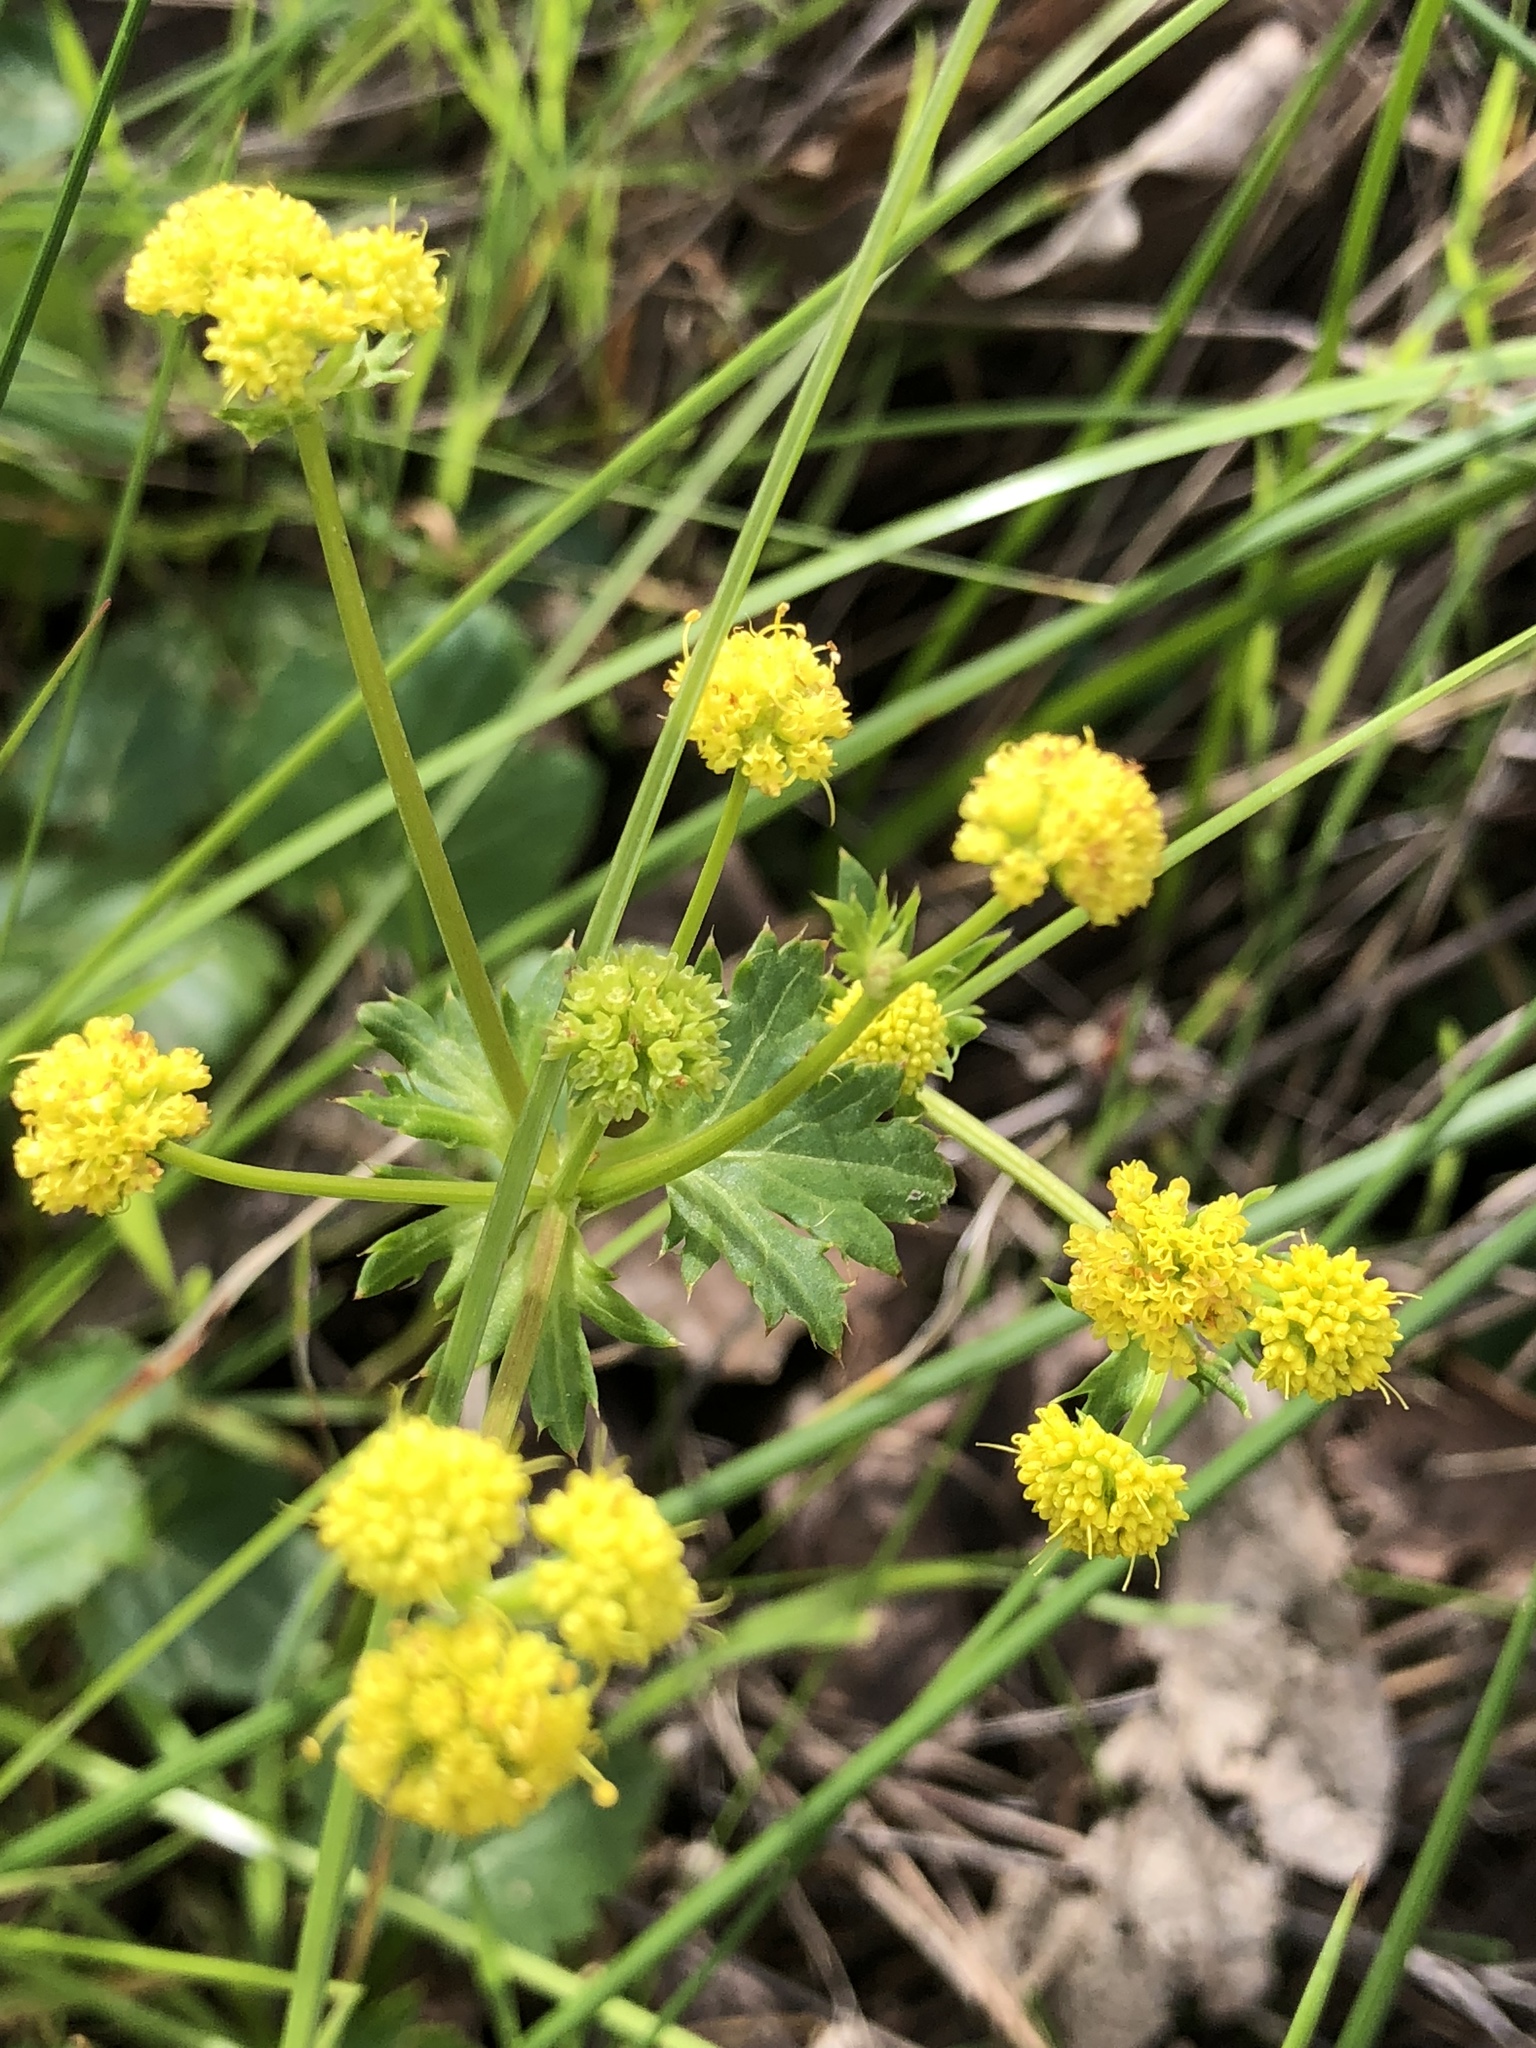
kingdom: Plantae
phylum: Tracheophyta
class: Magnoliopsida
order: Apiales
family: Apiaceae
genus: Sanicula
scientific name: Sanicula laciniata
